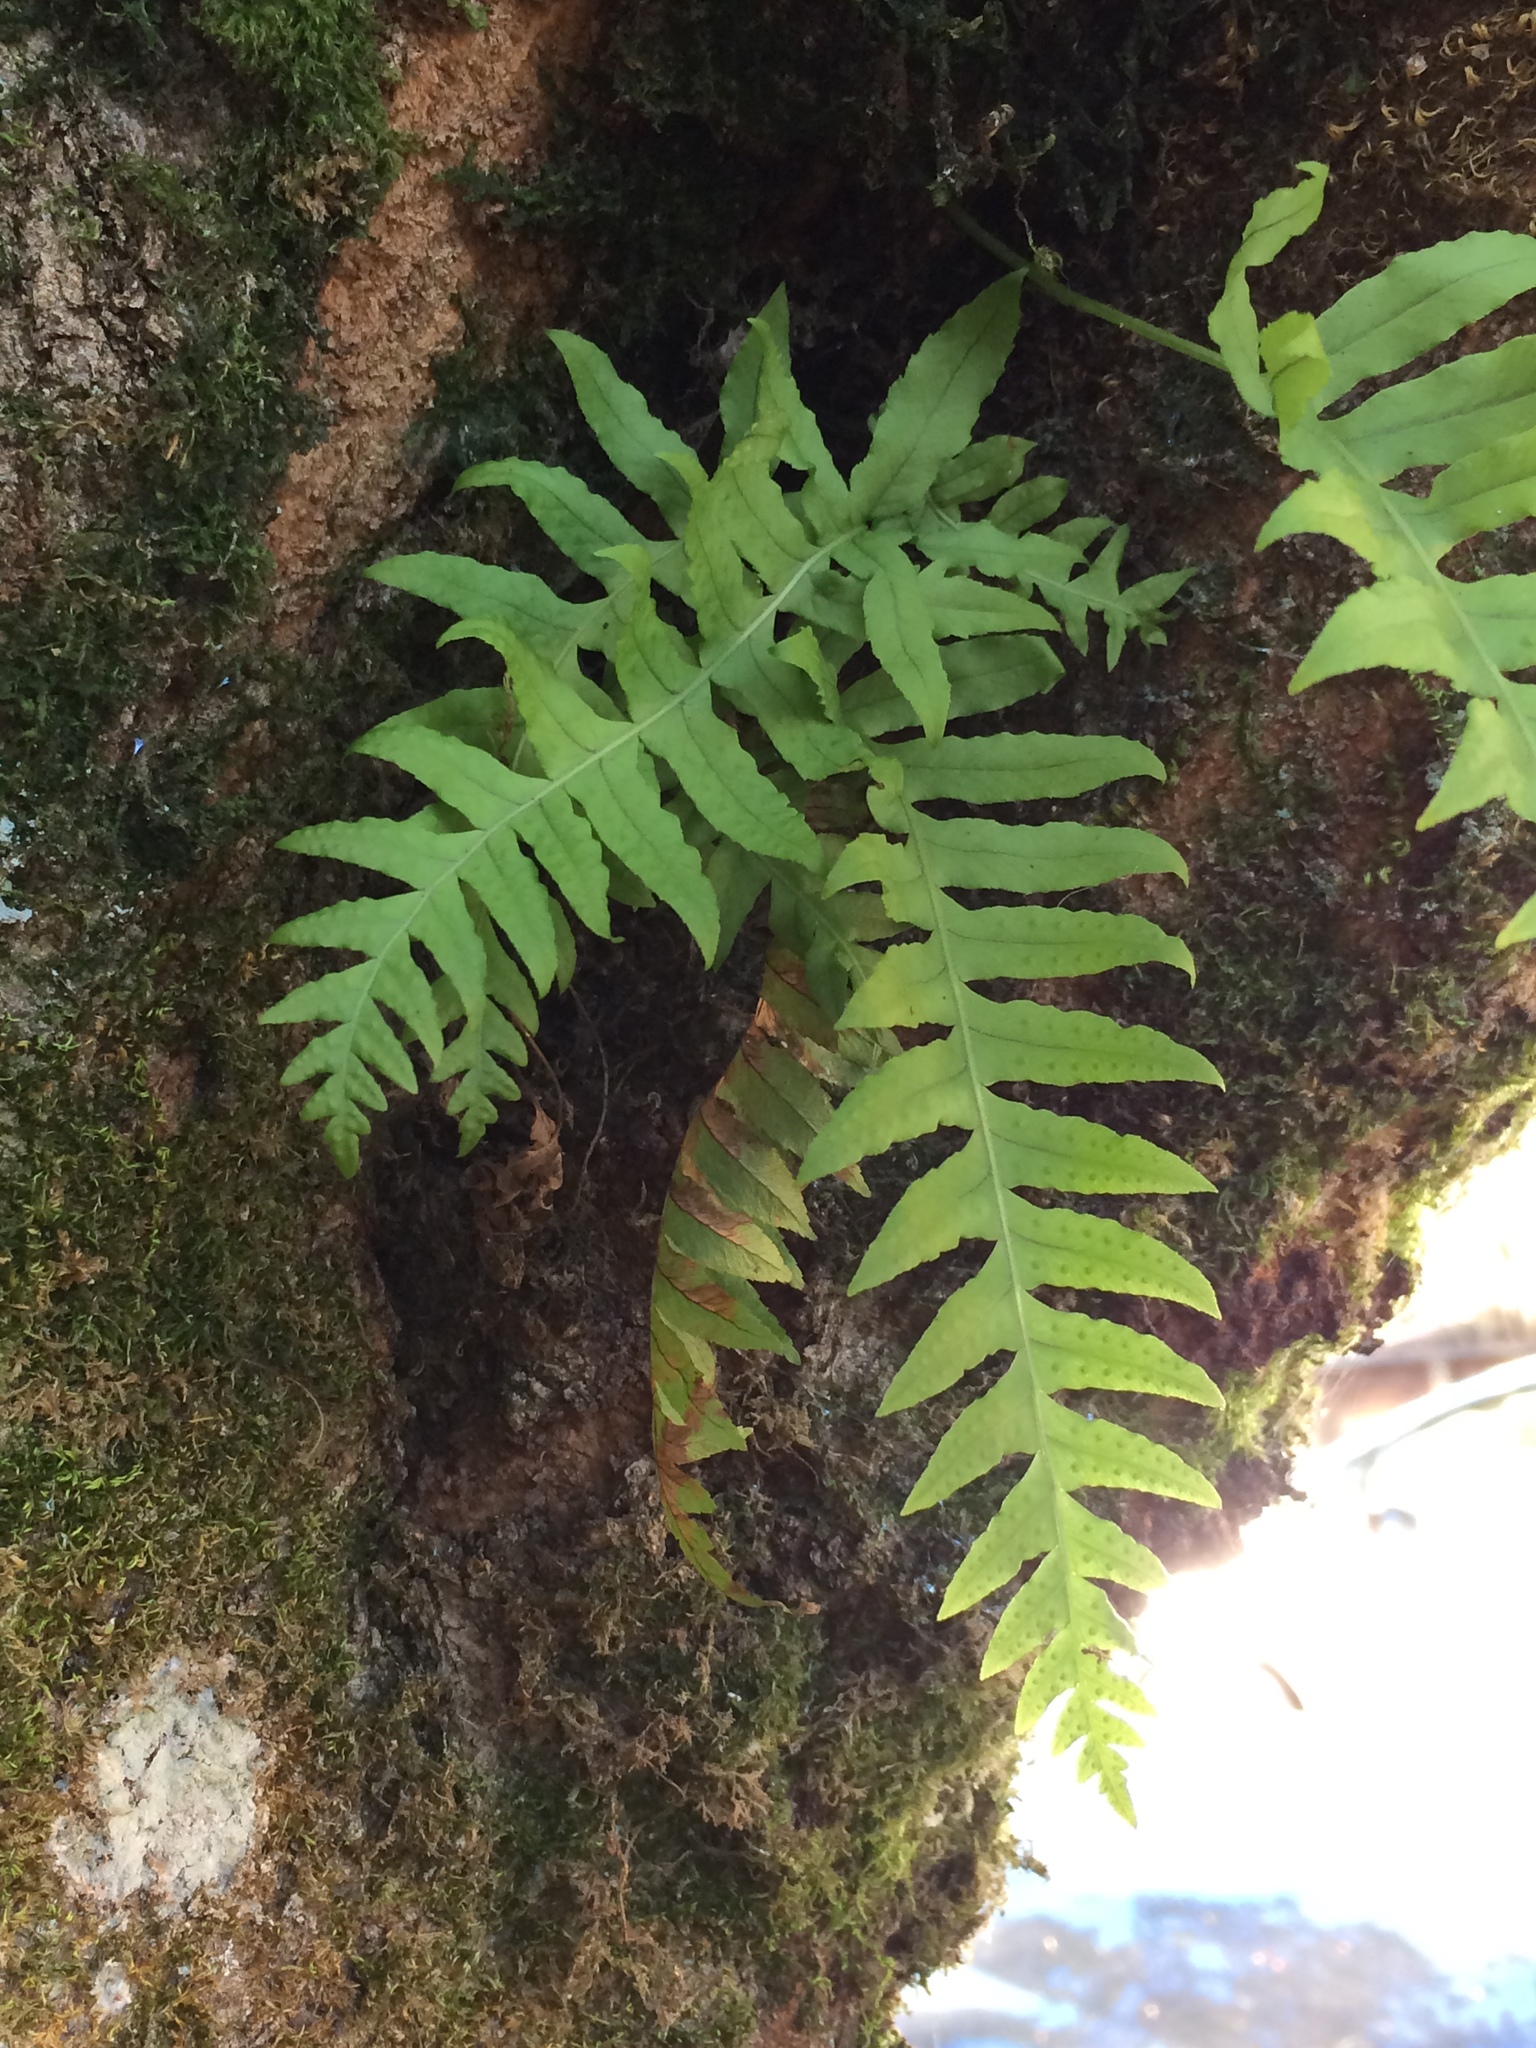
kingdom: Plantae
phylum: Tracheophyta
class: Polypodiopsida
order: Polypodiales
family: Polypodiaceae
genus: Polypodium
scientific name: Polypodium glycyrrhiza
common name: Licorice fern
